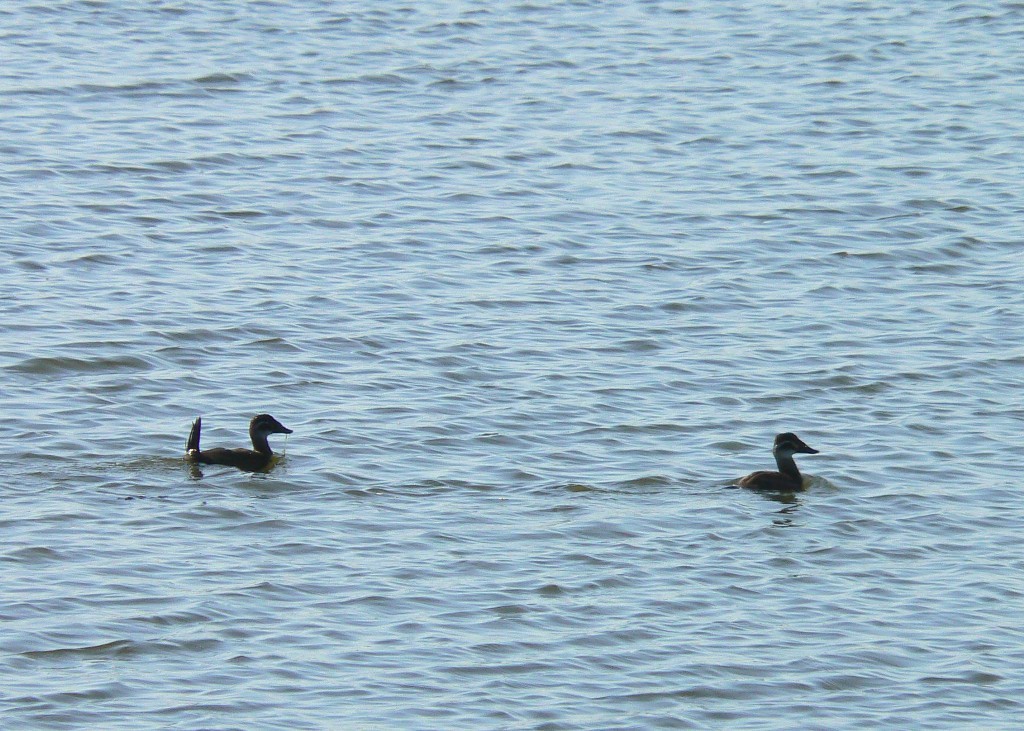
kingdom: Animalia
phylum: Chordata
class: Aves
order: Anseriformes
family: Anatidae
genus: Oxyura
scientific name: Oxyura leucocephala
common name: White-headed duck
